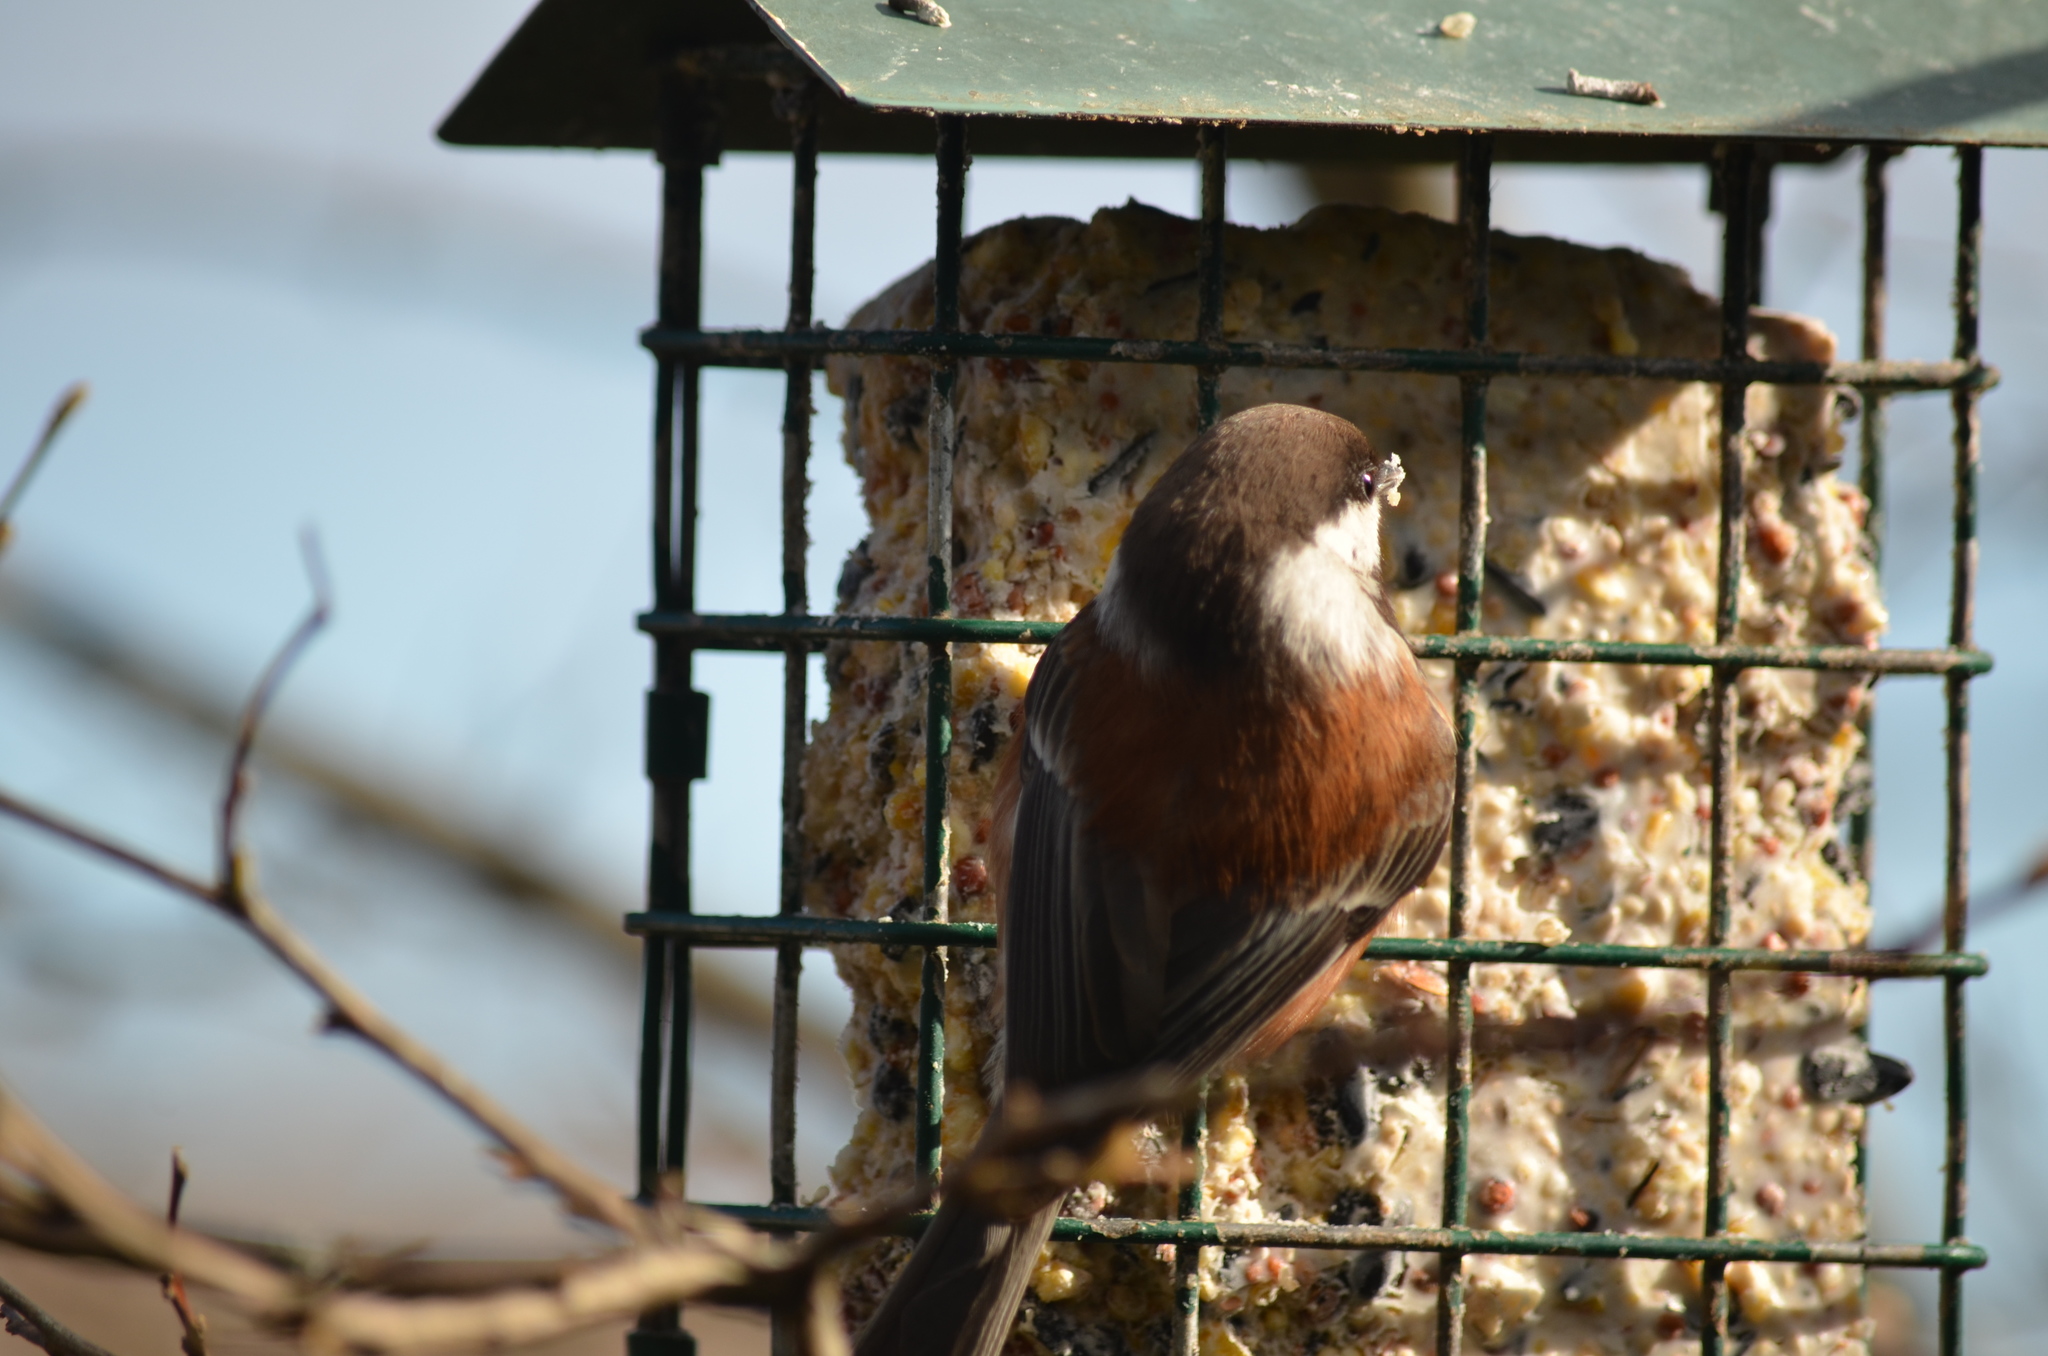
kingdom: Animalia
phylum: Chordata
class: Aves
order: Passeriformes
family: Paridae
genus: Poecile
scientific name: Poecile rufescens
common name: Chestnut-backed chickadee
